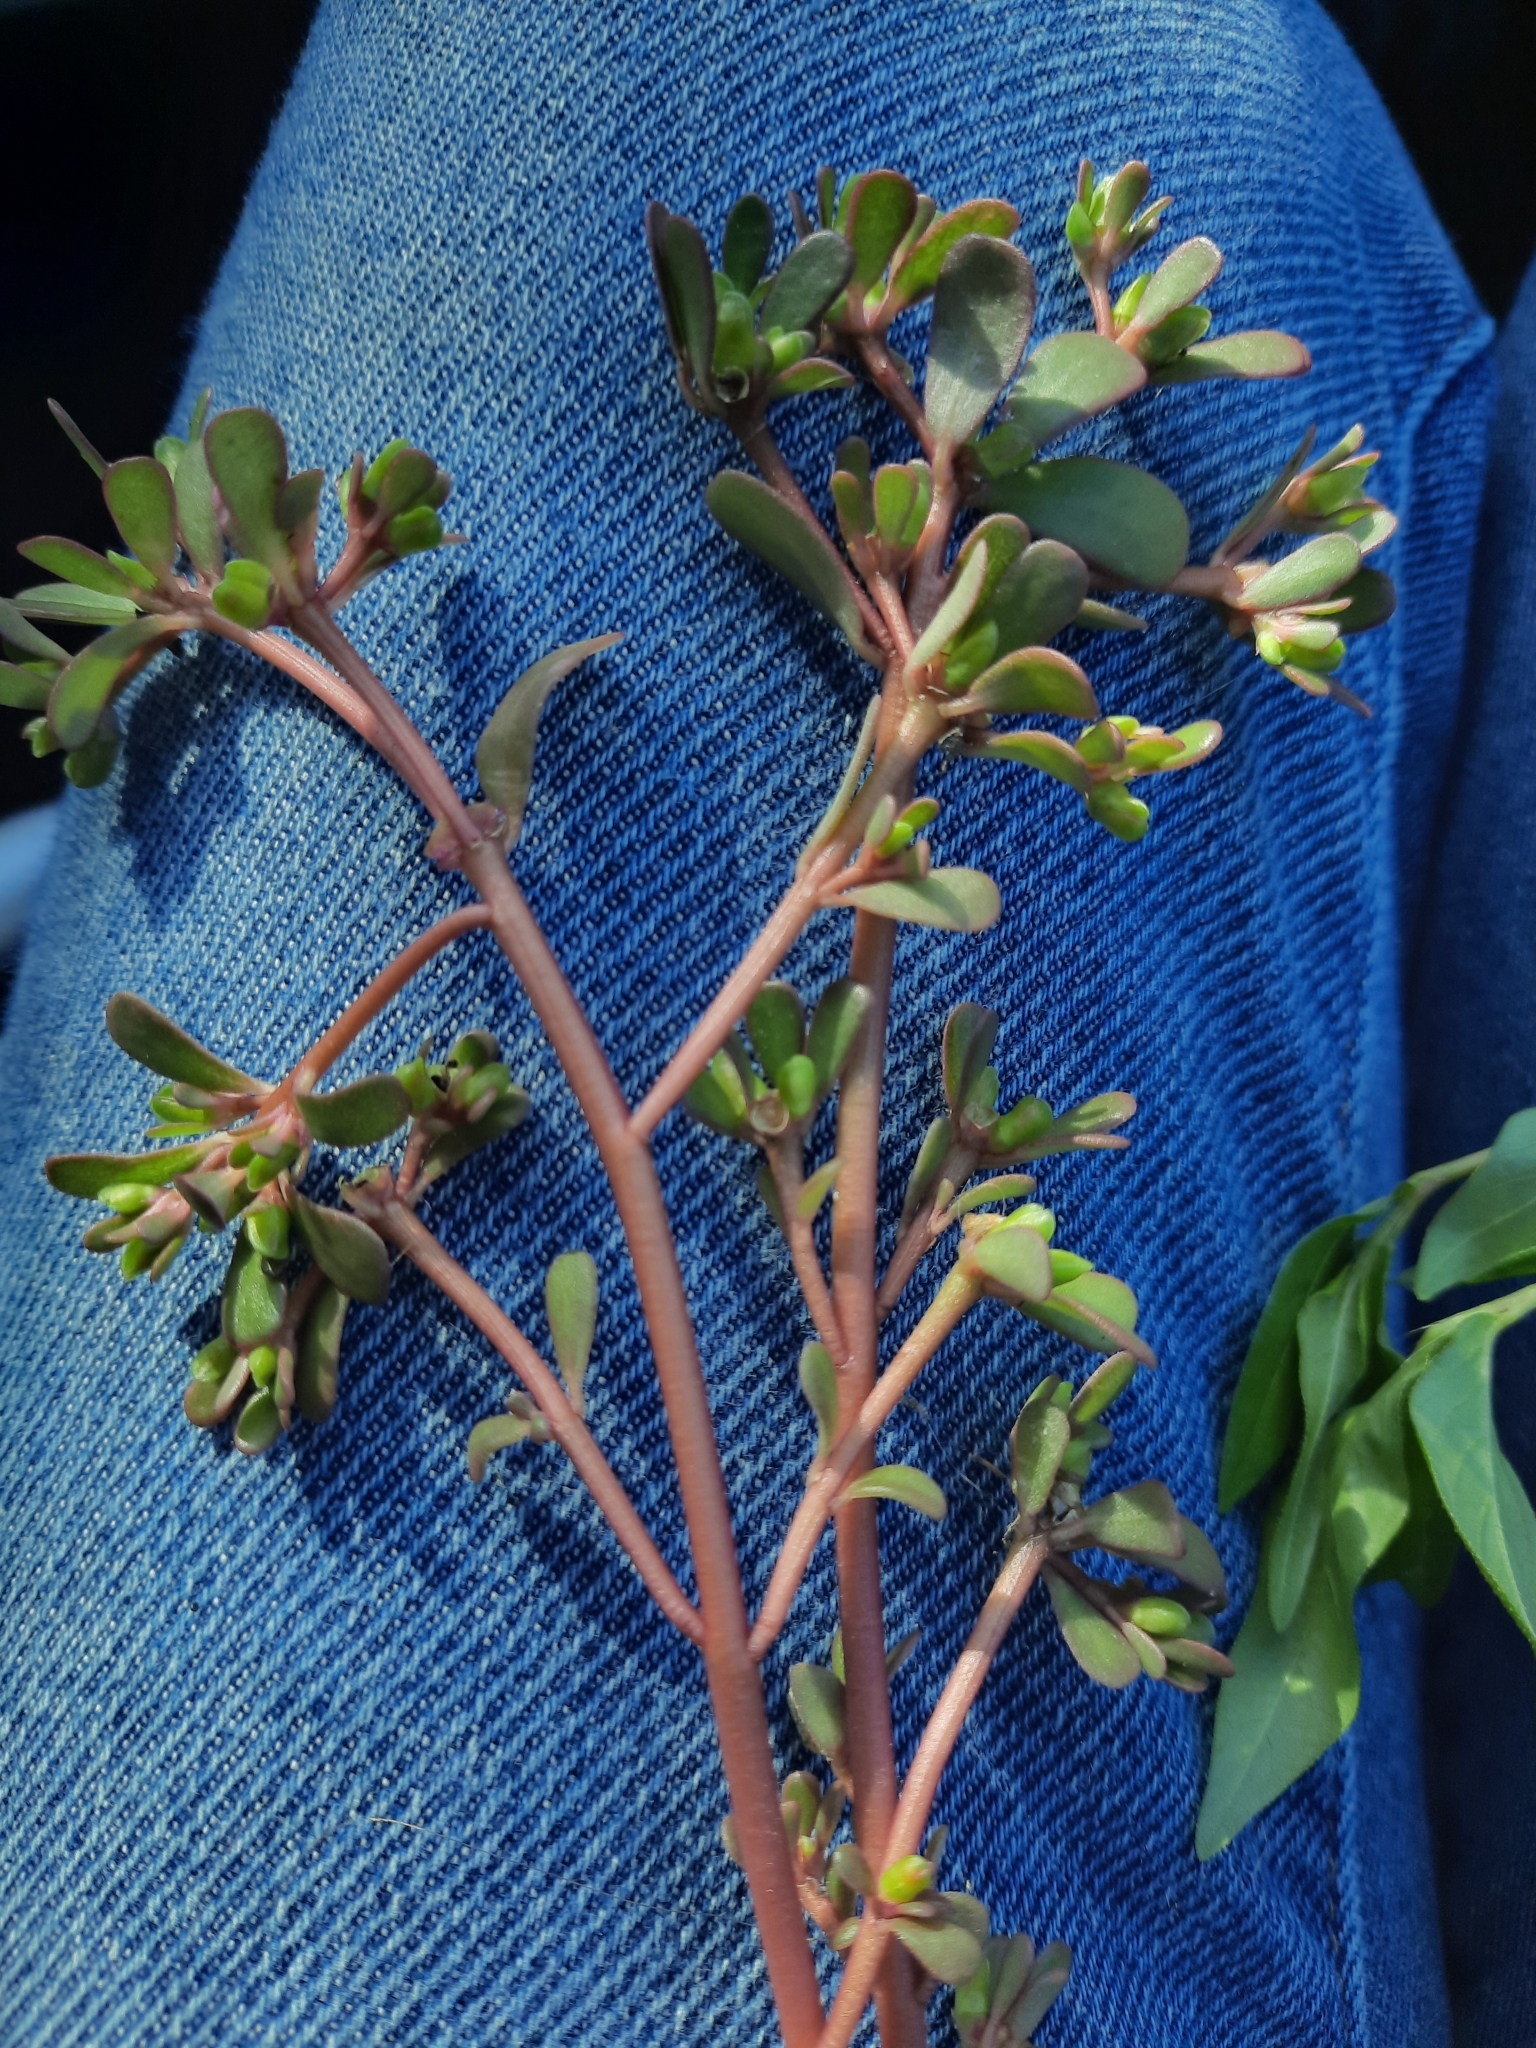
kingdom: Plantae
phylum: Tracheophyta
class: Magnoliopsida
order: Caryophyllales
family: Portulacaceae
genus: Portulaca
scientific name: Portulaca oleracea
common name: Common purslane
